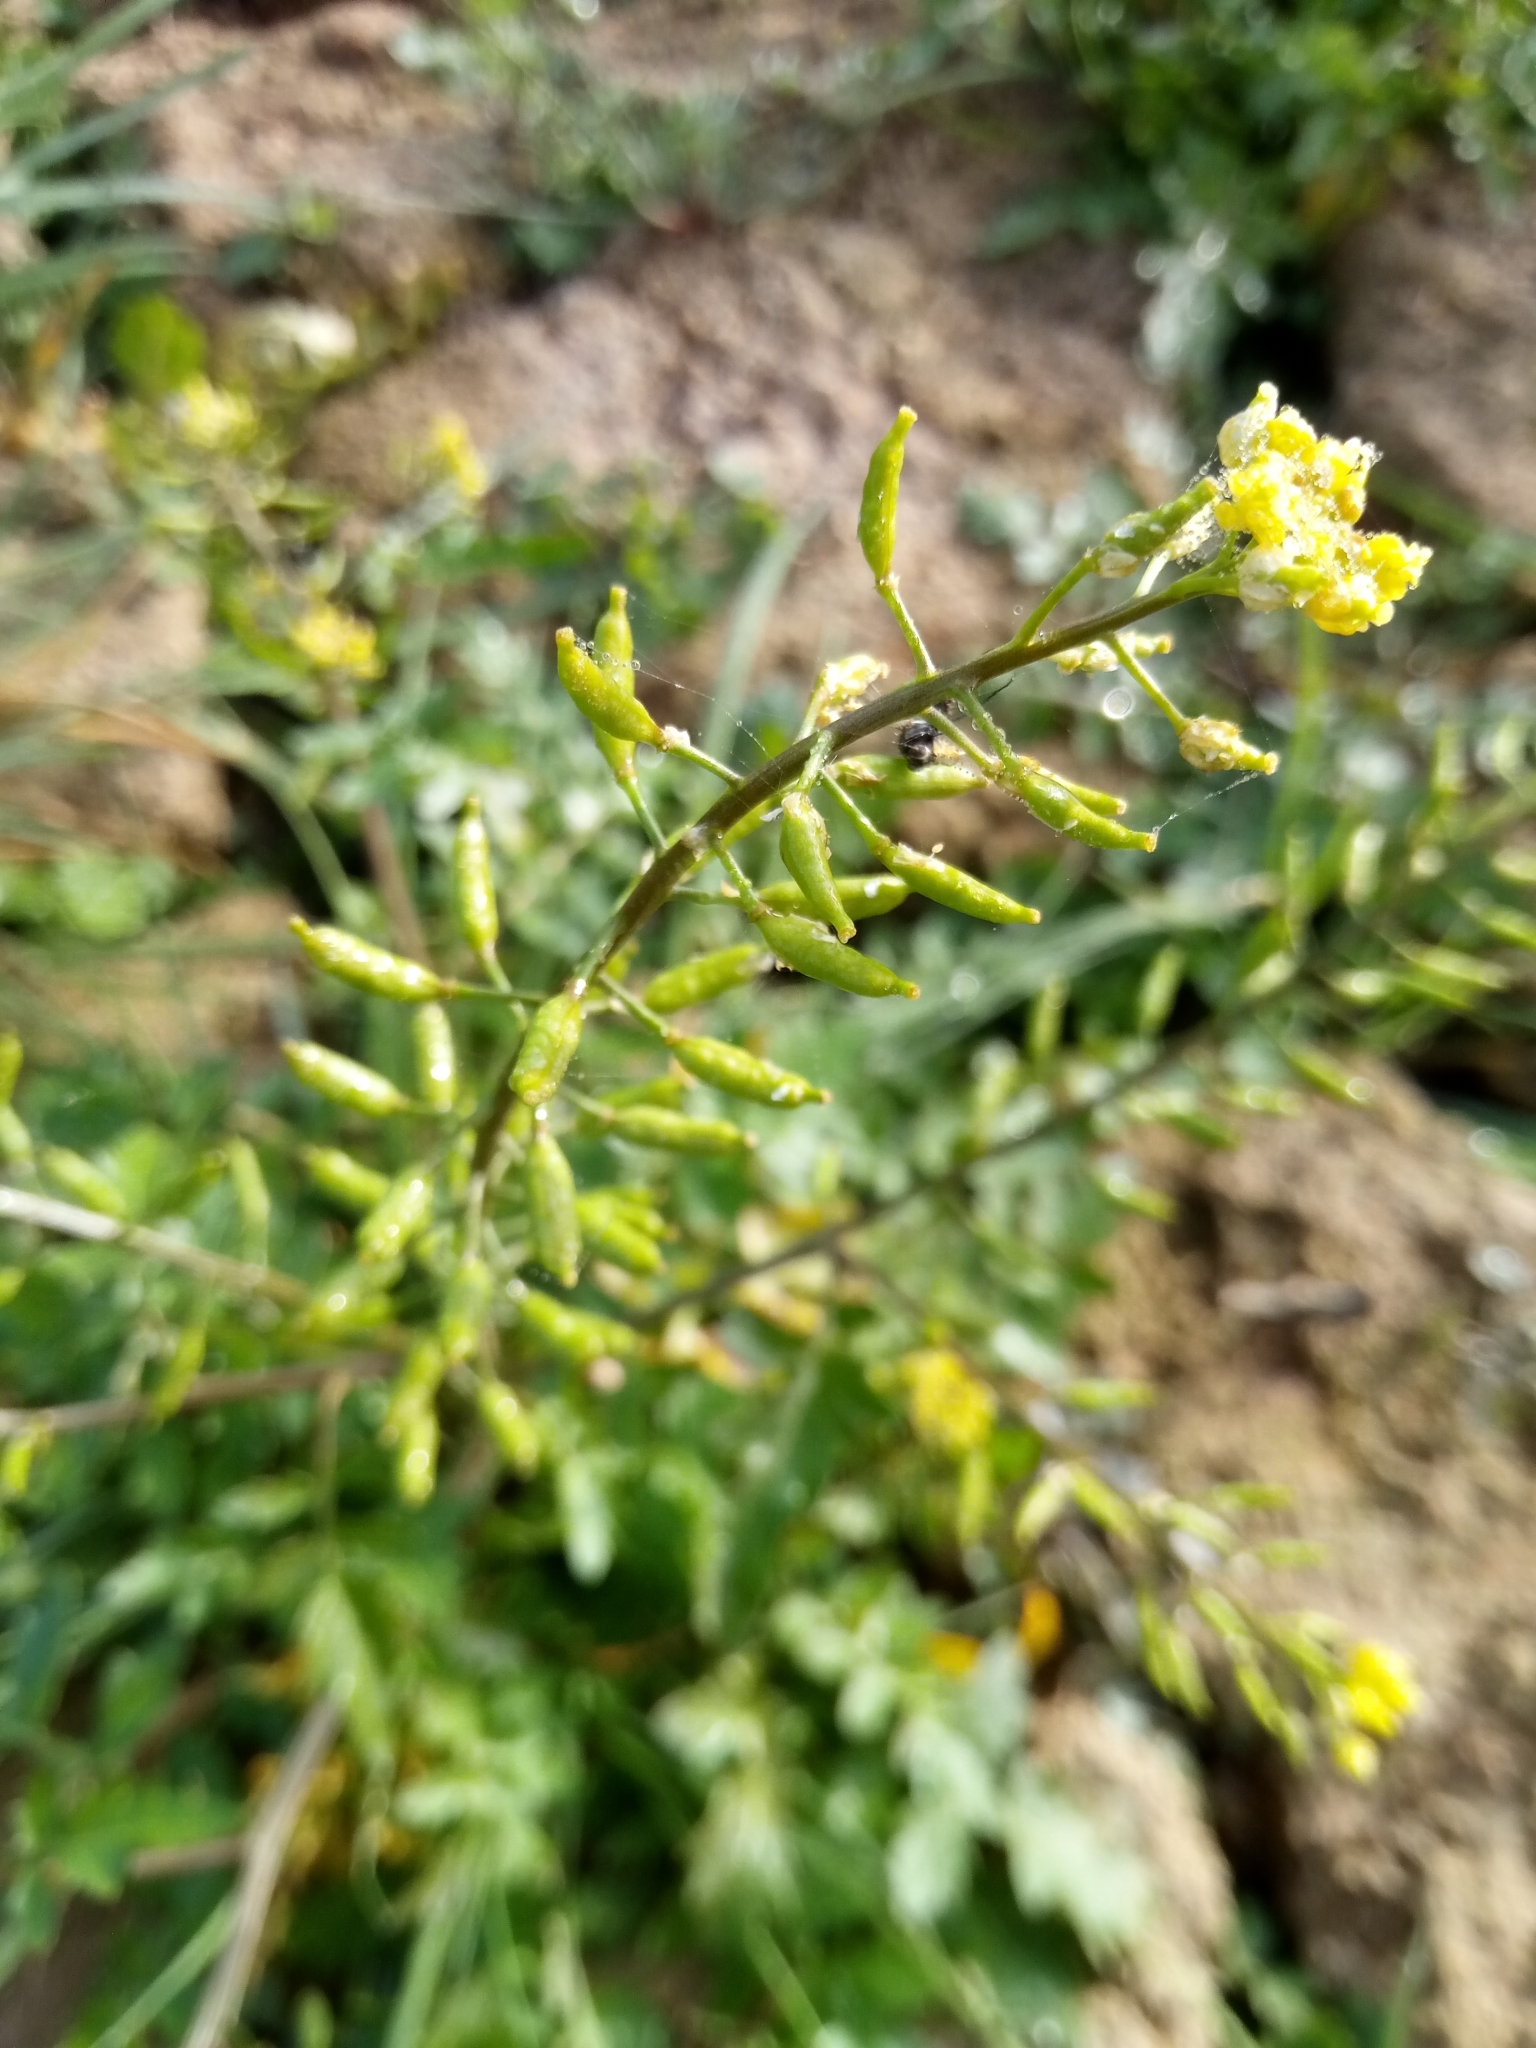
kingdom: Plantae
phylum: Tracheophyta
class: Magnoliopsida
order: Brassicales
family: Brassicaceae
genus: Rorippa
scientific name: Rorippa palustris
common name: Marsh yellow-cress
